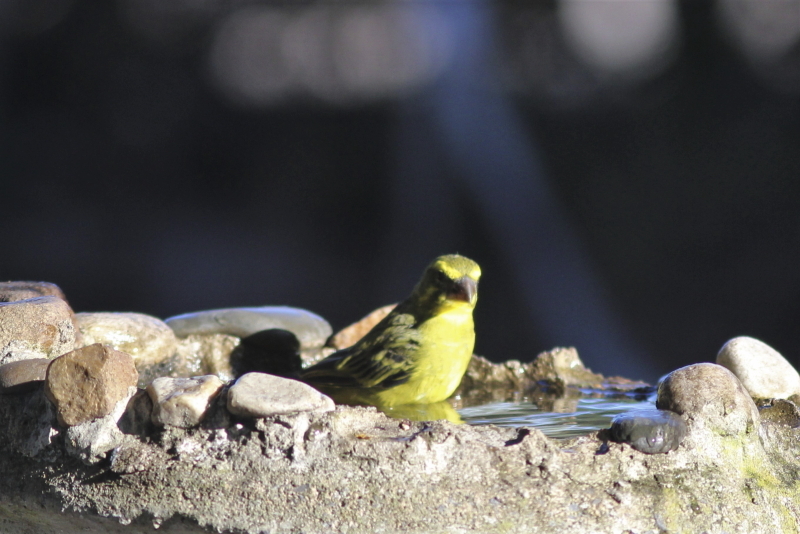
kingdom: Animalia
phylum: Chordata
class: Aves
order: Passeriformes
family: Fringillidae
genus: Crithagra
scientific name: Crithagra sulphurata
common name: Brimstone canary
